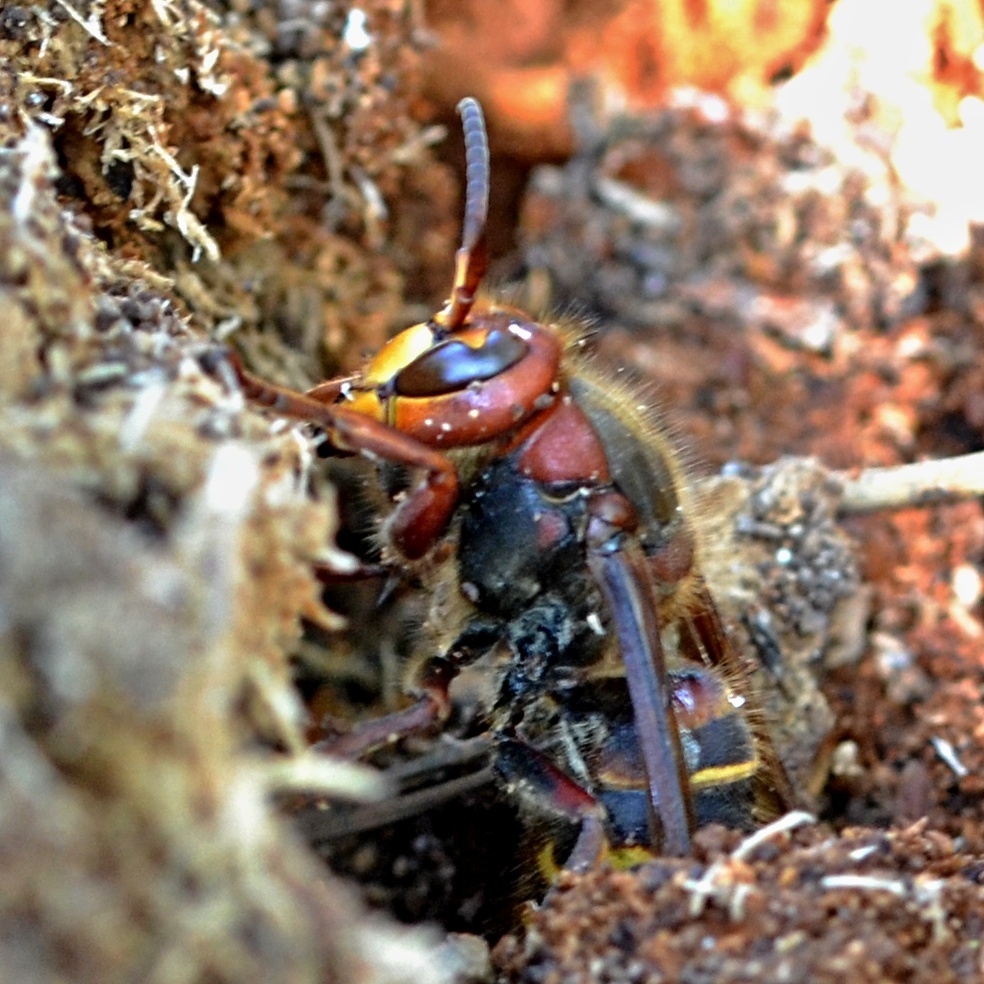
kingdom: Animalia
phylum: Arthropoda
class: Insecta
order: Hymenoptera
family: Vespidae
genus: Vespa
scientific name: Vespa crabro
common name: Hornet
